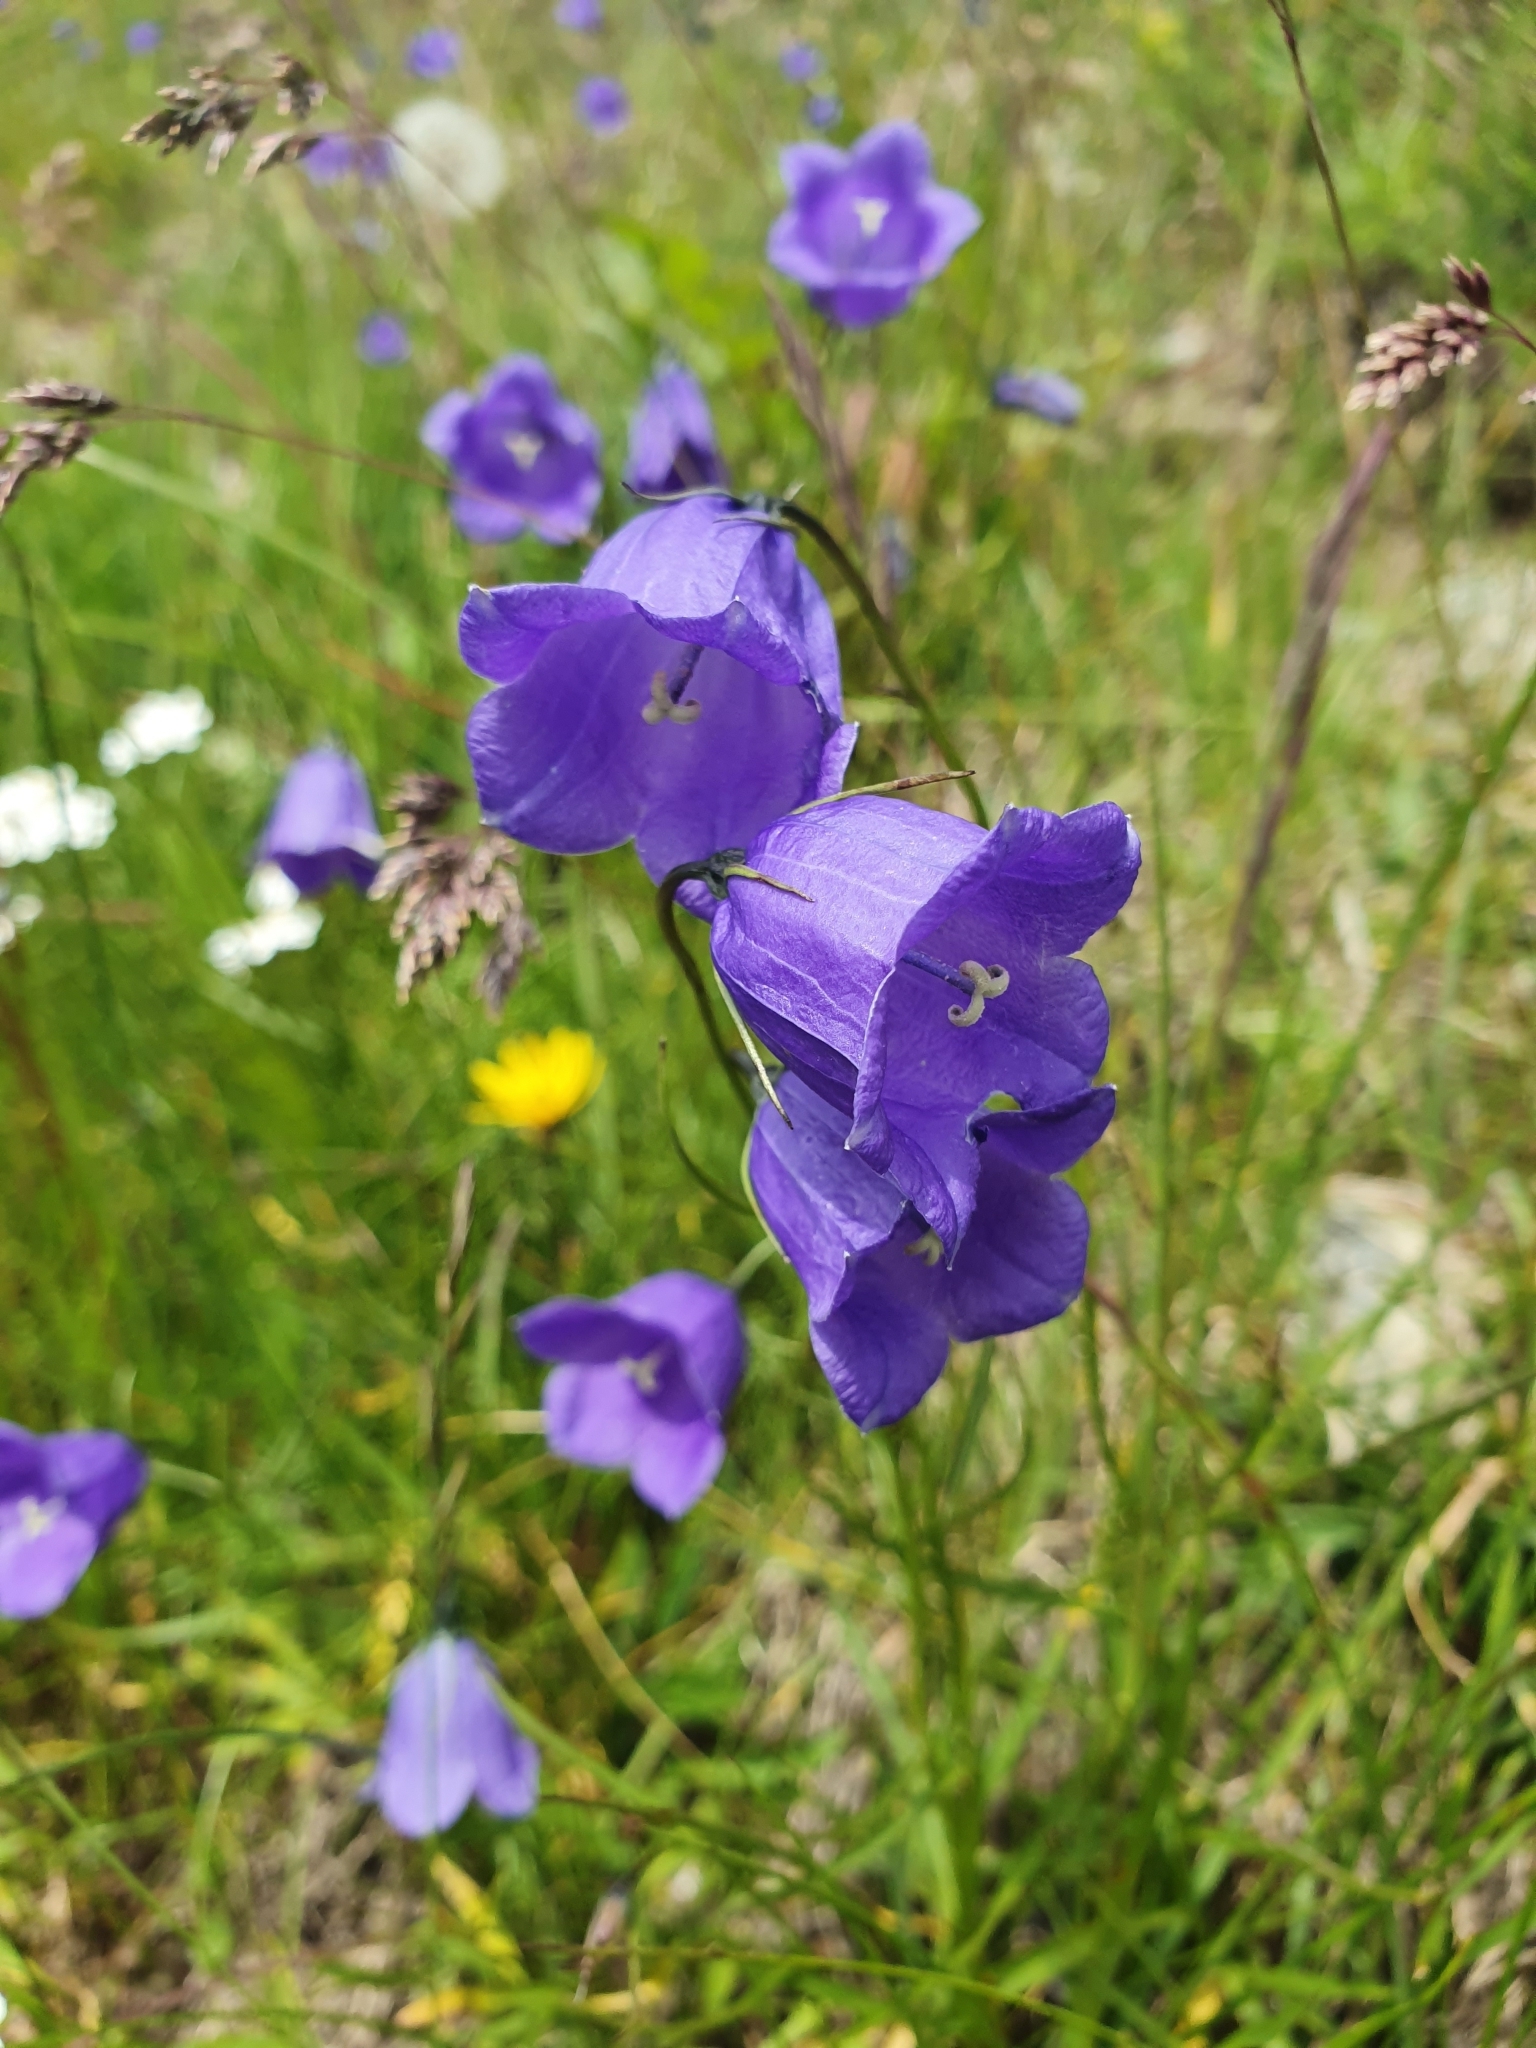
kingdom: Plantae
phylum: Tracheophyta
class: Magnoliopsida
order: Asterales
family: Campanulaceae
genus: Campanula
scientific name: Campanula scheuchzeri
